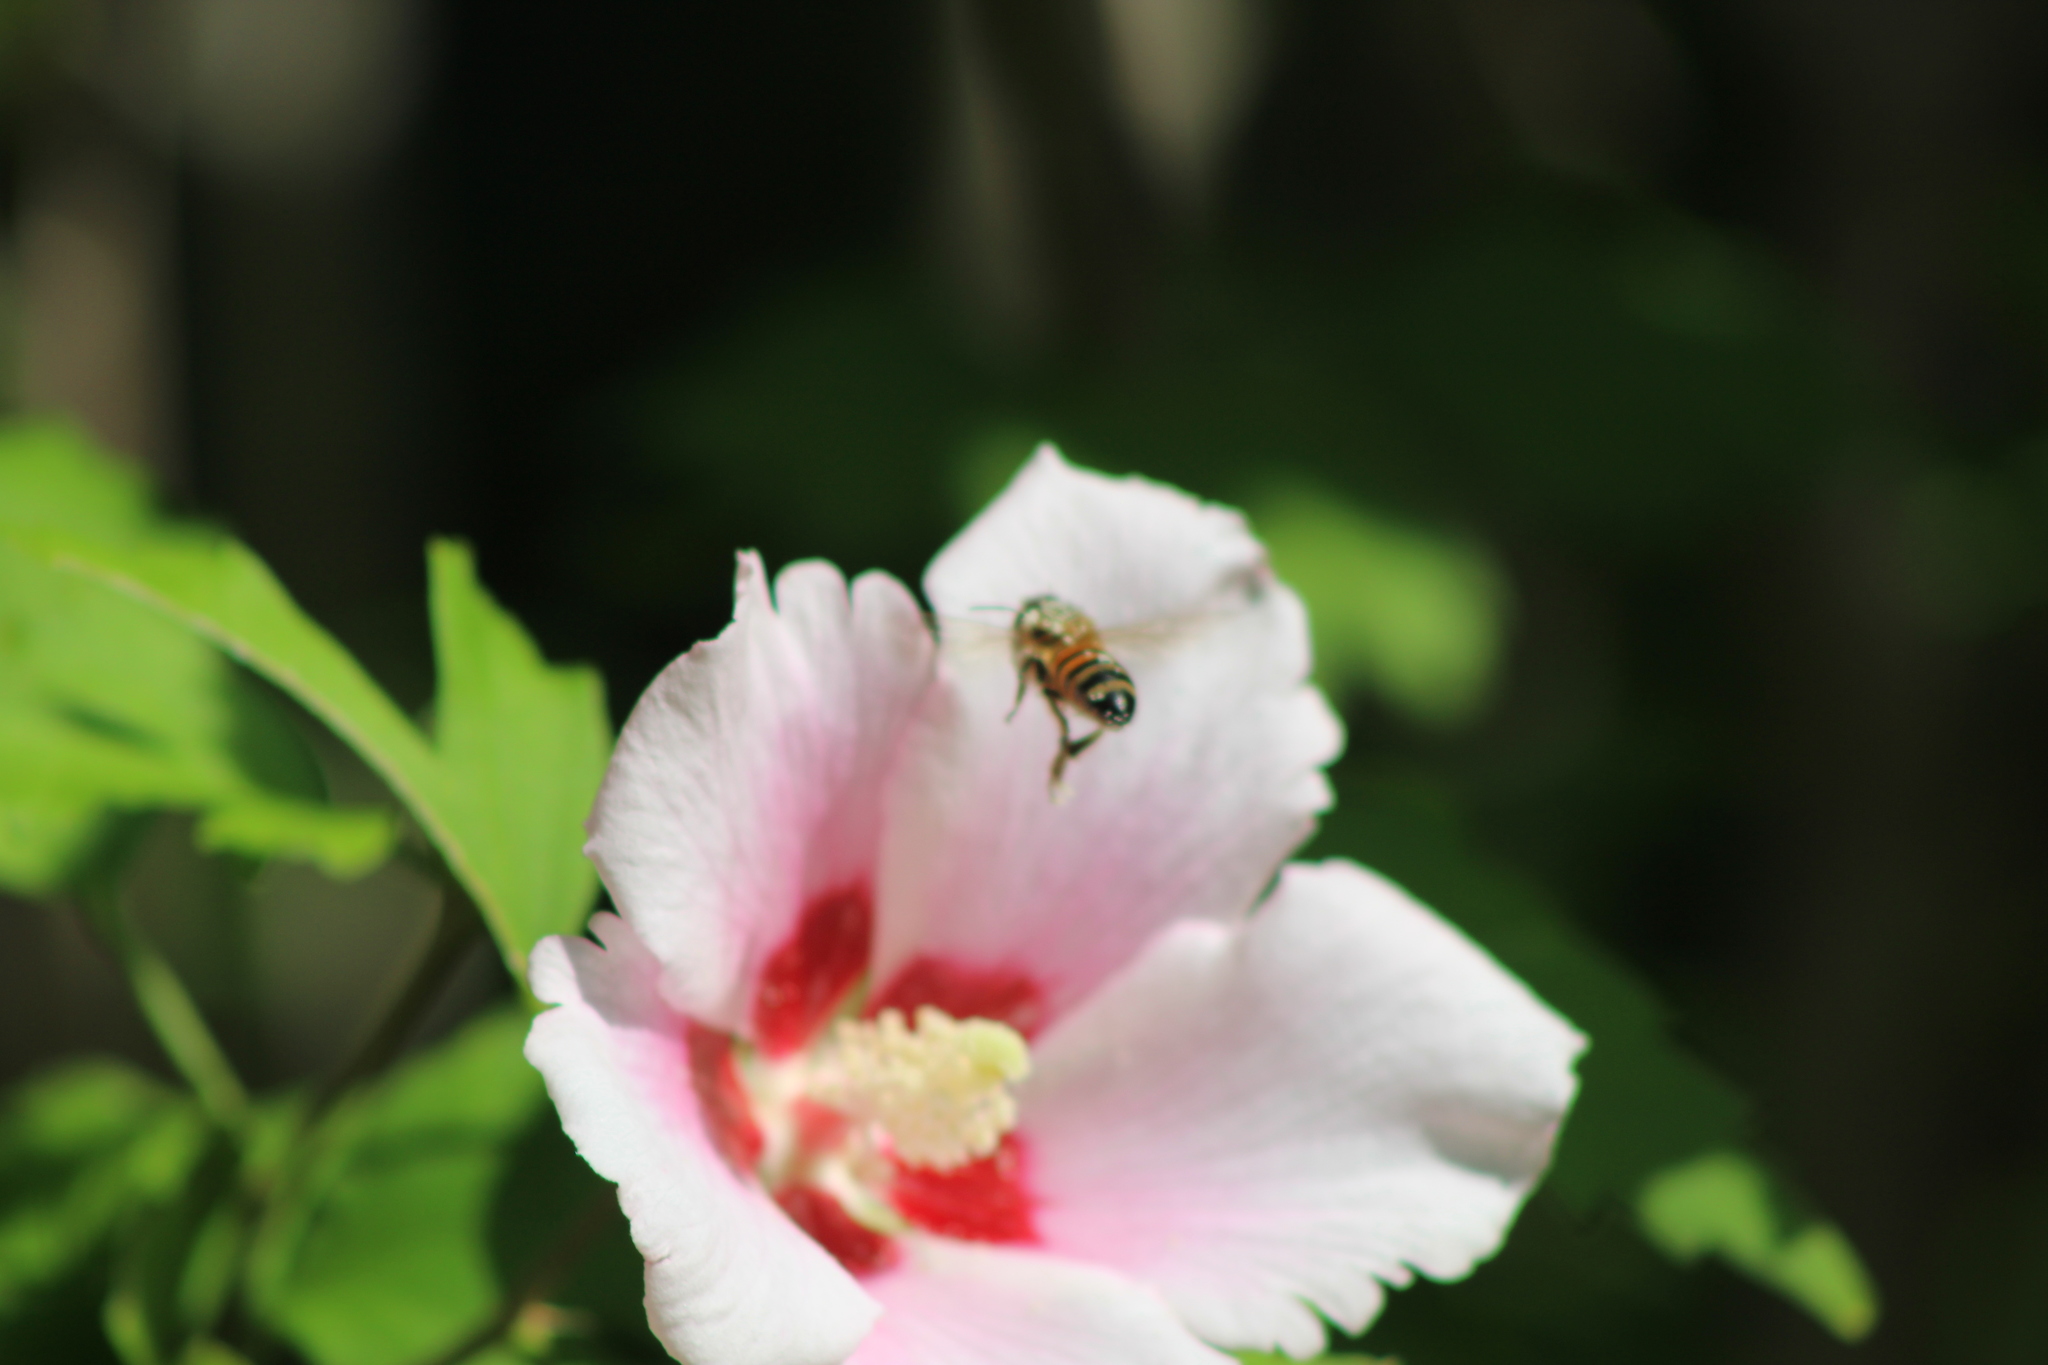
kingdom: Animalia
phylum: Arthropoda
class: Insecta
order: Hymenoptera
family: Apidae
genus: Apis
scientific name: Apis mellifera
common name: Honey bee
